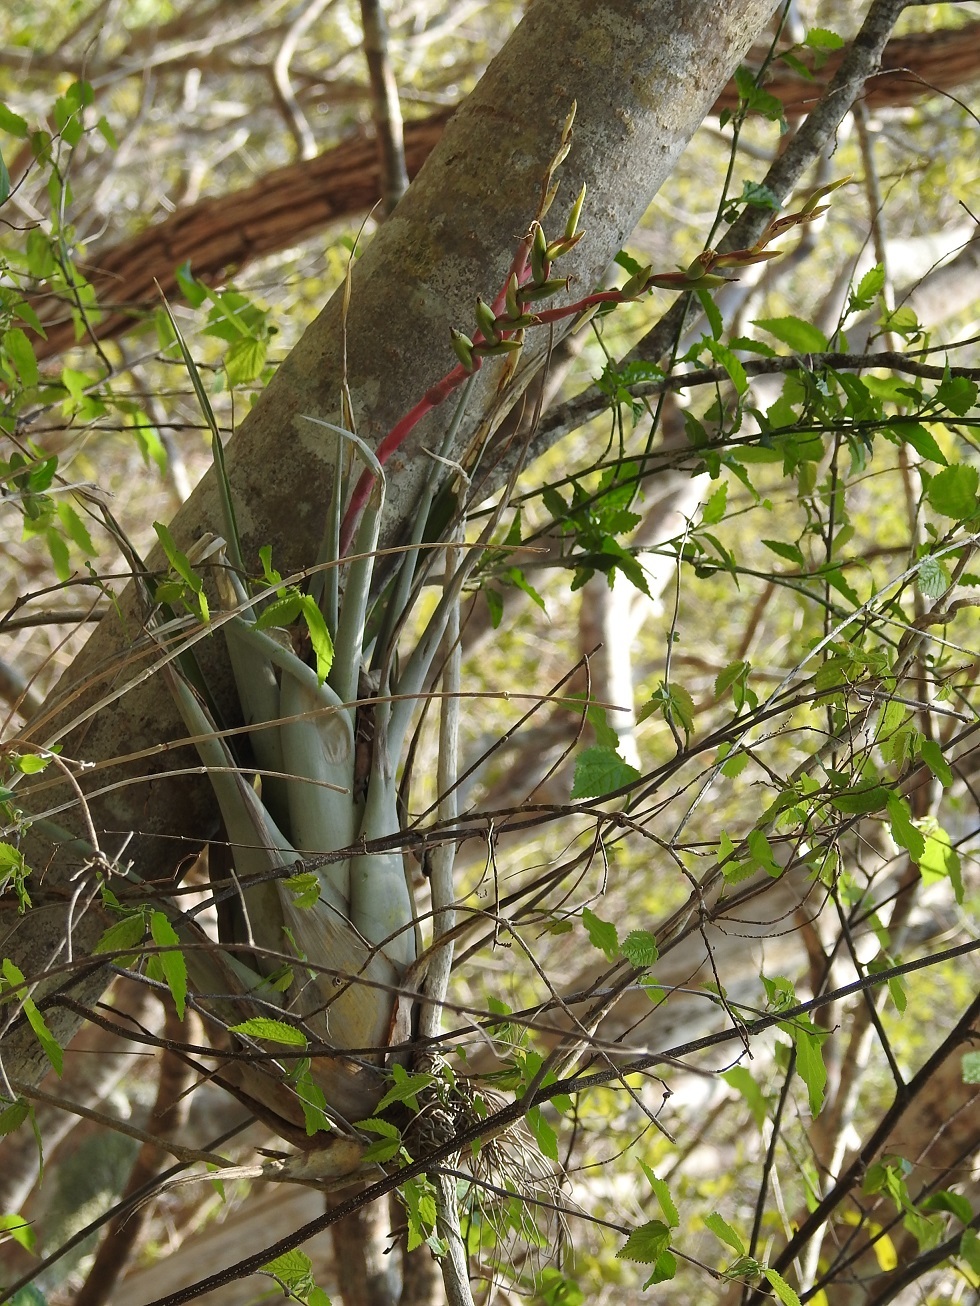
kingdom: Plantae
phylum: Tracheophyta
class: Liliopsida
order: Poales
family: Bromeliaceae
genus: Tillandsia
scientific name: Tillandsia cucaensis
